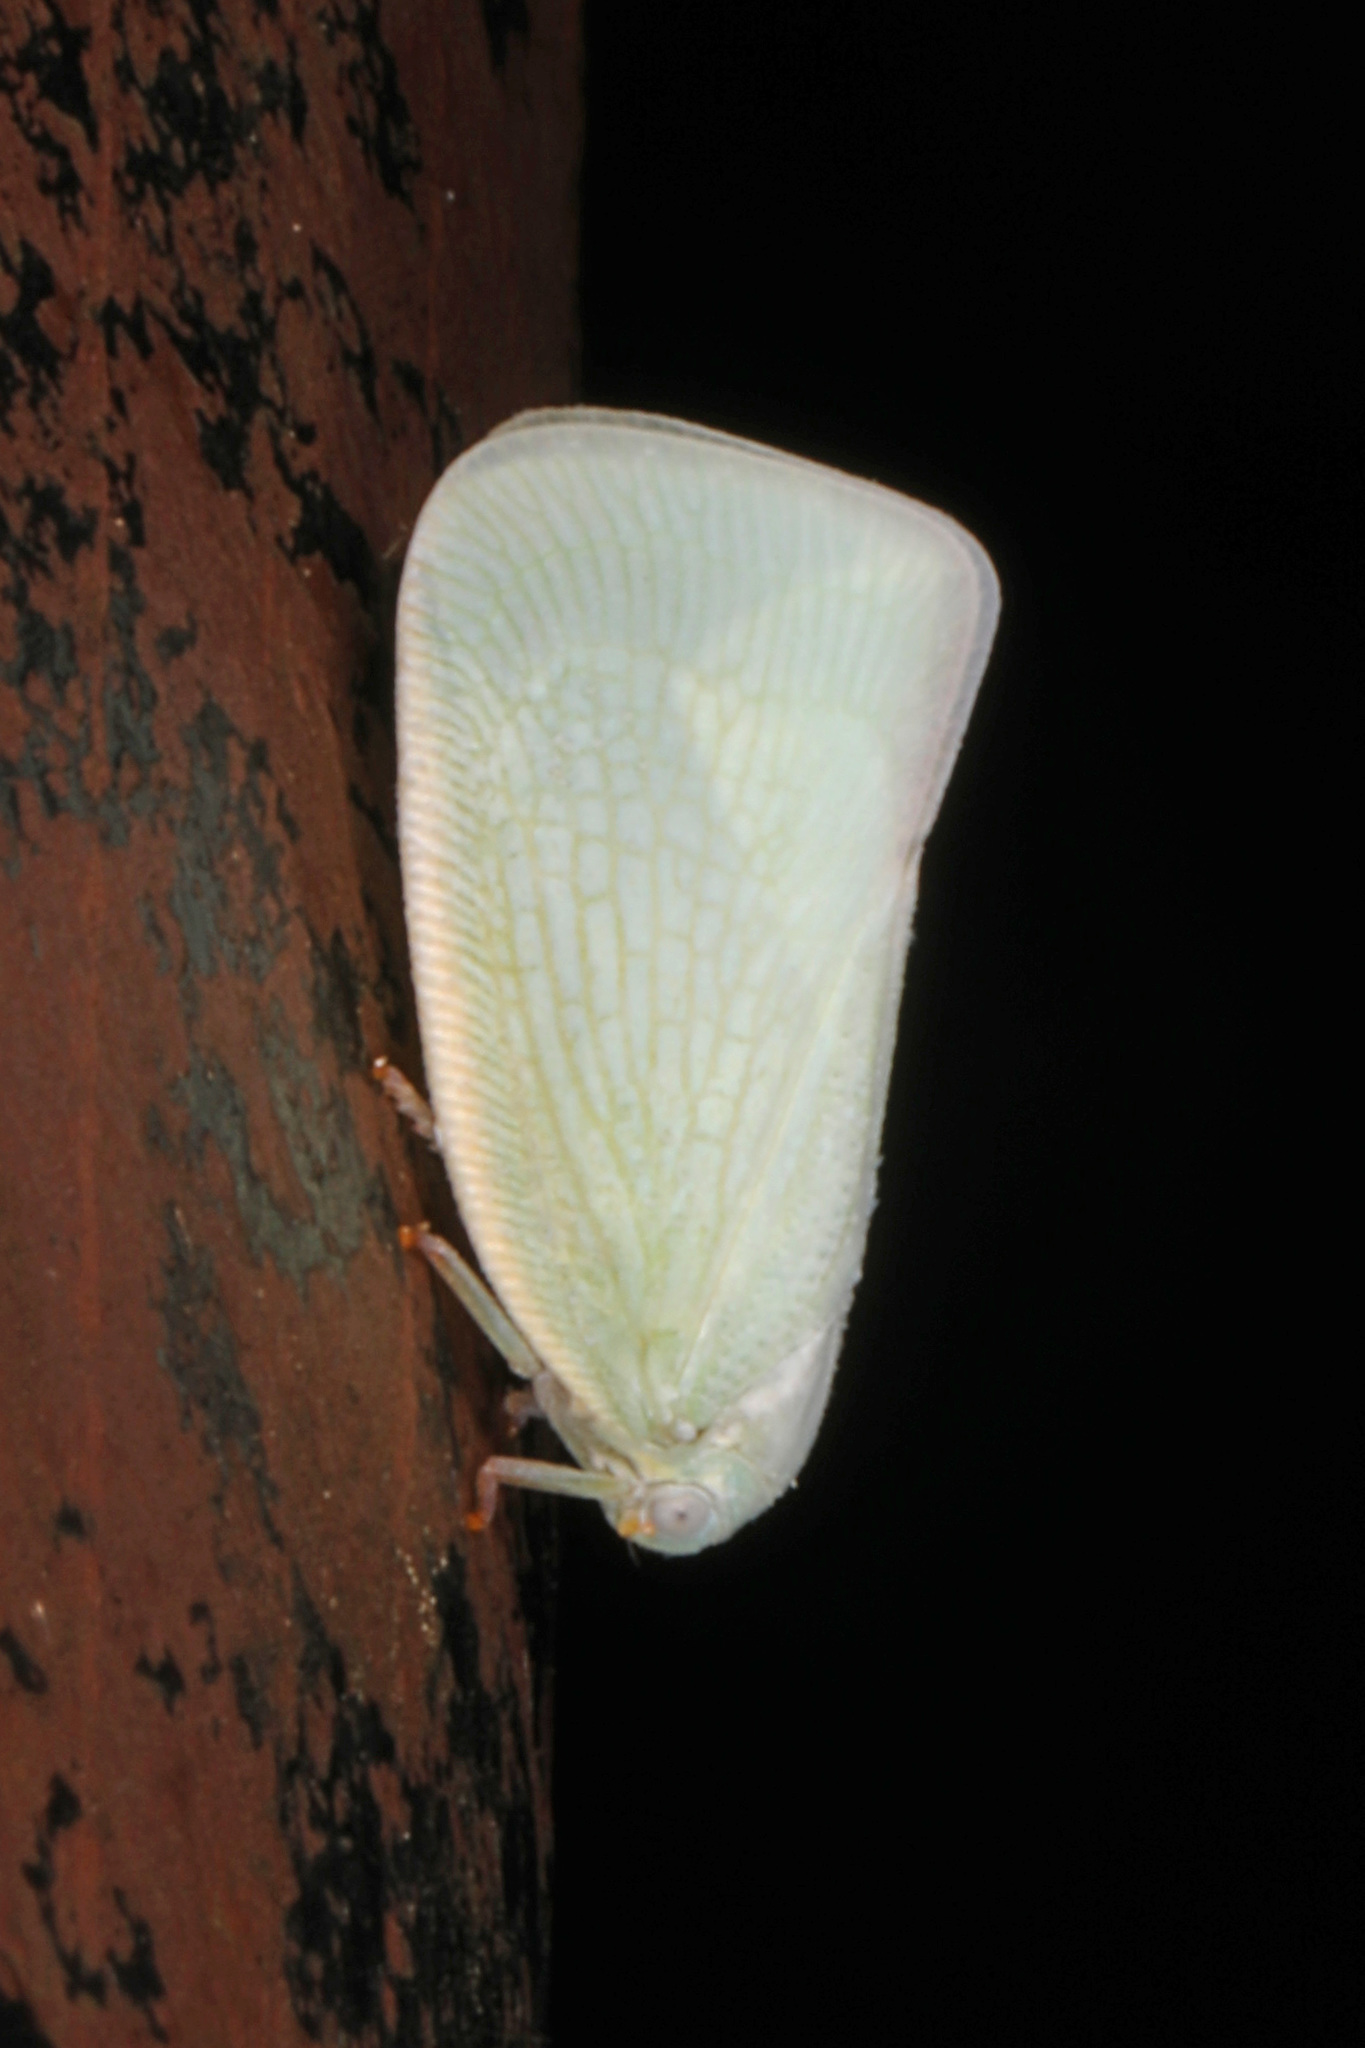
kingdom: Animalia
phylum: Arthropoda
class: Insecta
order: Hemiptera
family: Flatidae
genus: Flatormenis
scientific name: Flatormenis proxima
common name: Northern flatid planthopper
